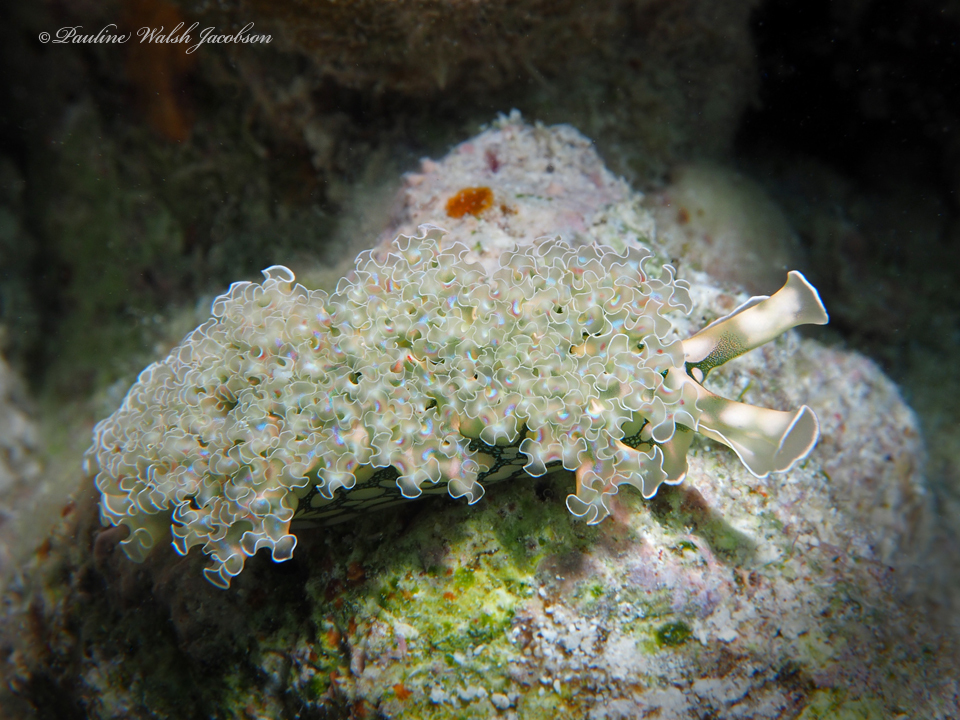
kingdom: Animalia
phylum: Mollusca
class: Gastropoda
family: Plakobranchidae
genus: Elysia
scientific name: Elysia crispata
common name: Lettuce slug
